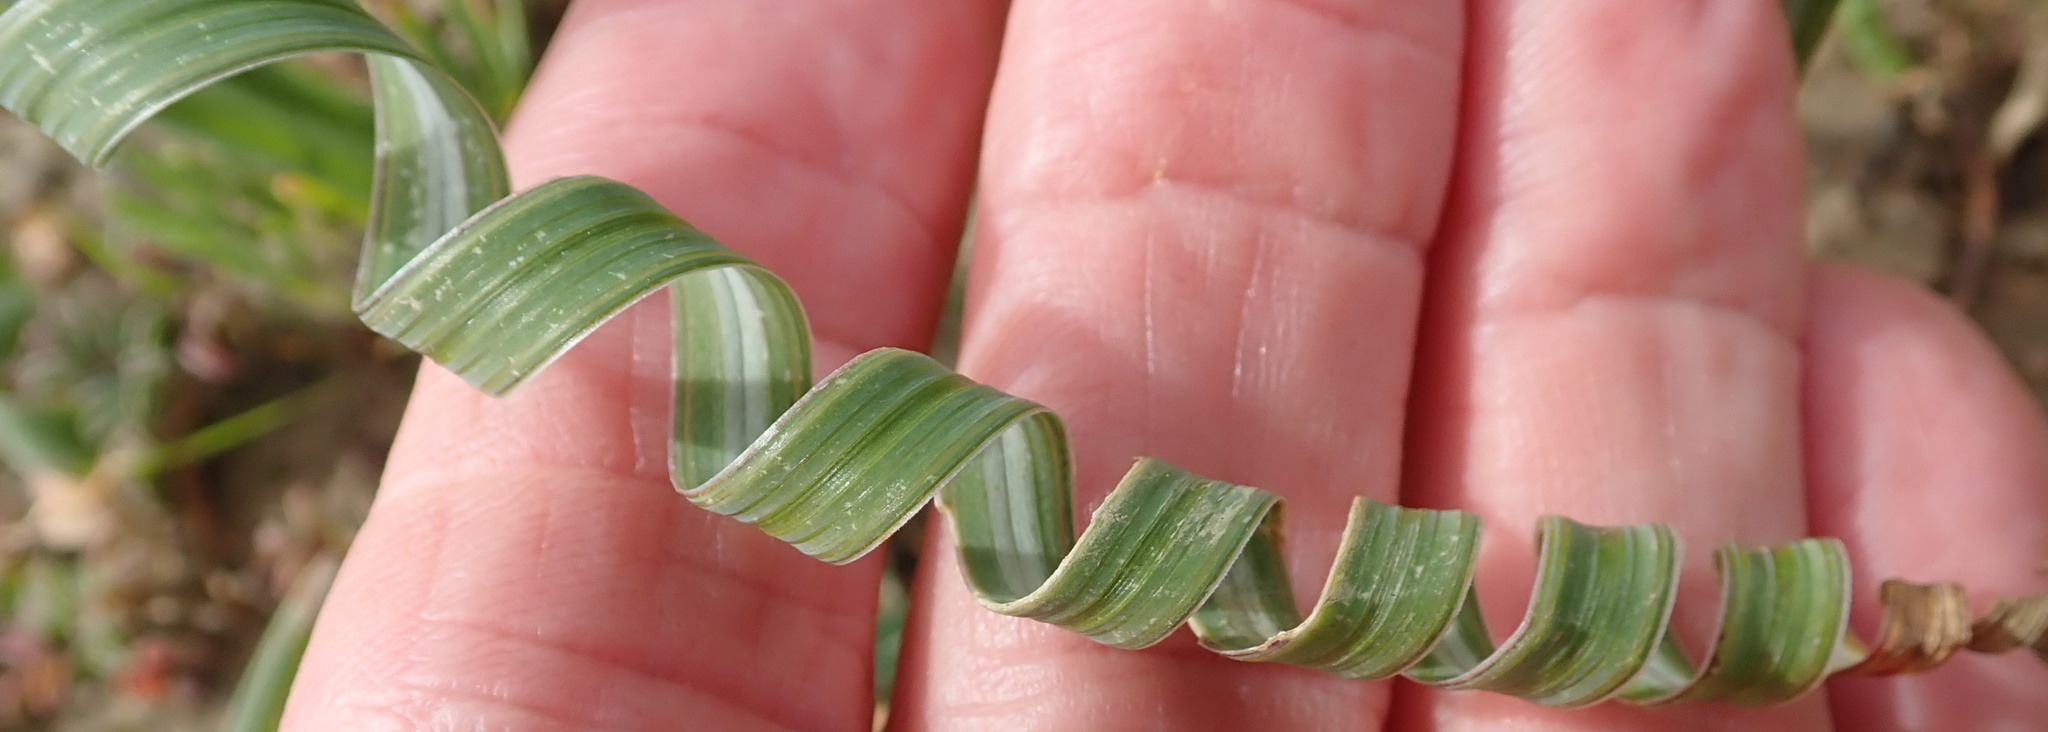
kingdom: Plantae
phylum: Tracheophyta
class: Liliopsida
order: Asparagales
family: Iridaceae
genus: Moraea
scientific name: Moraea pritzeliana
